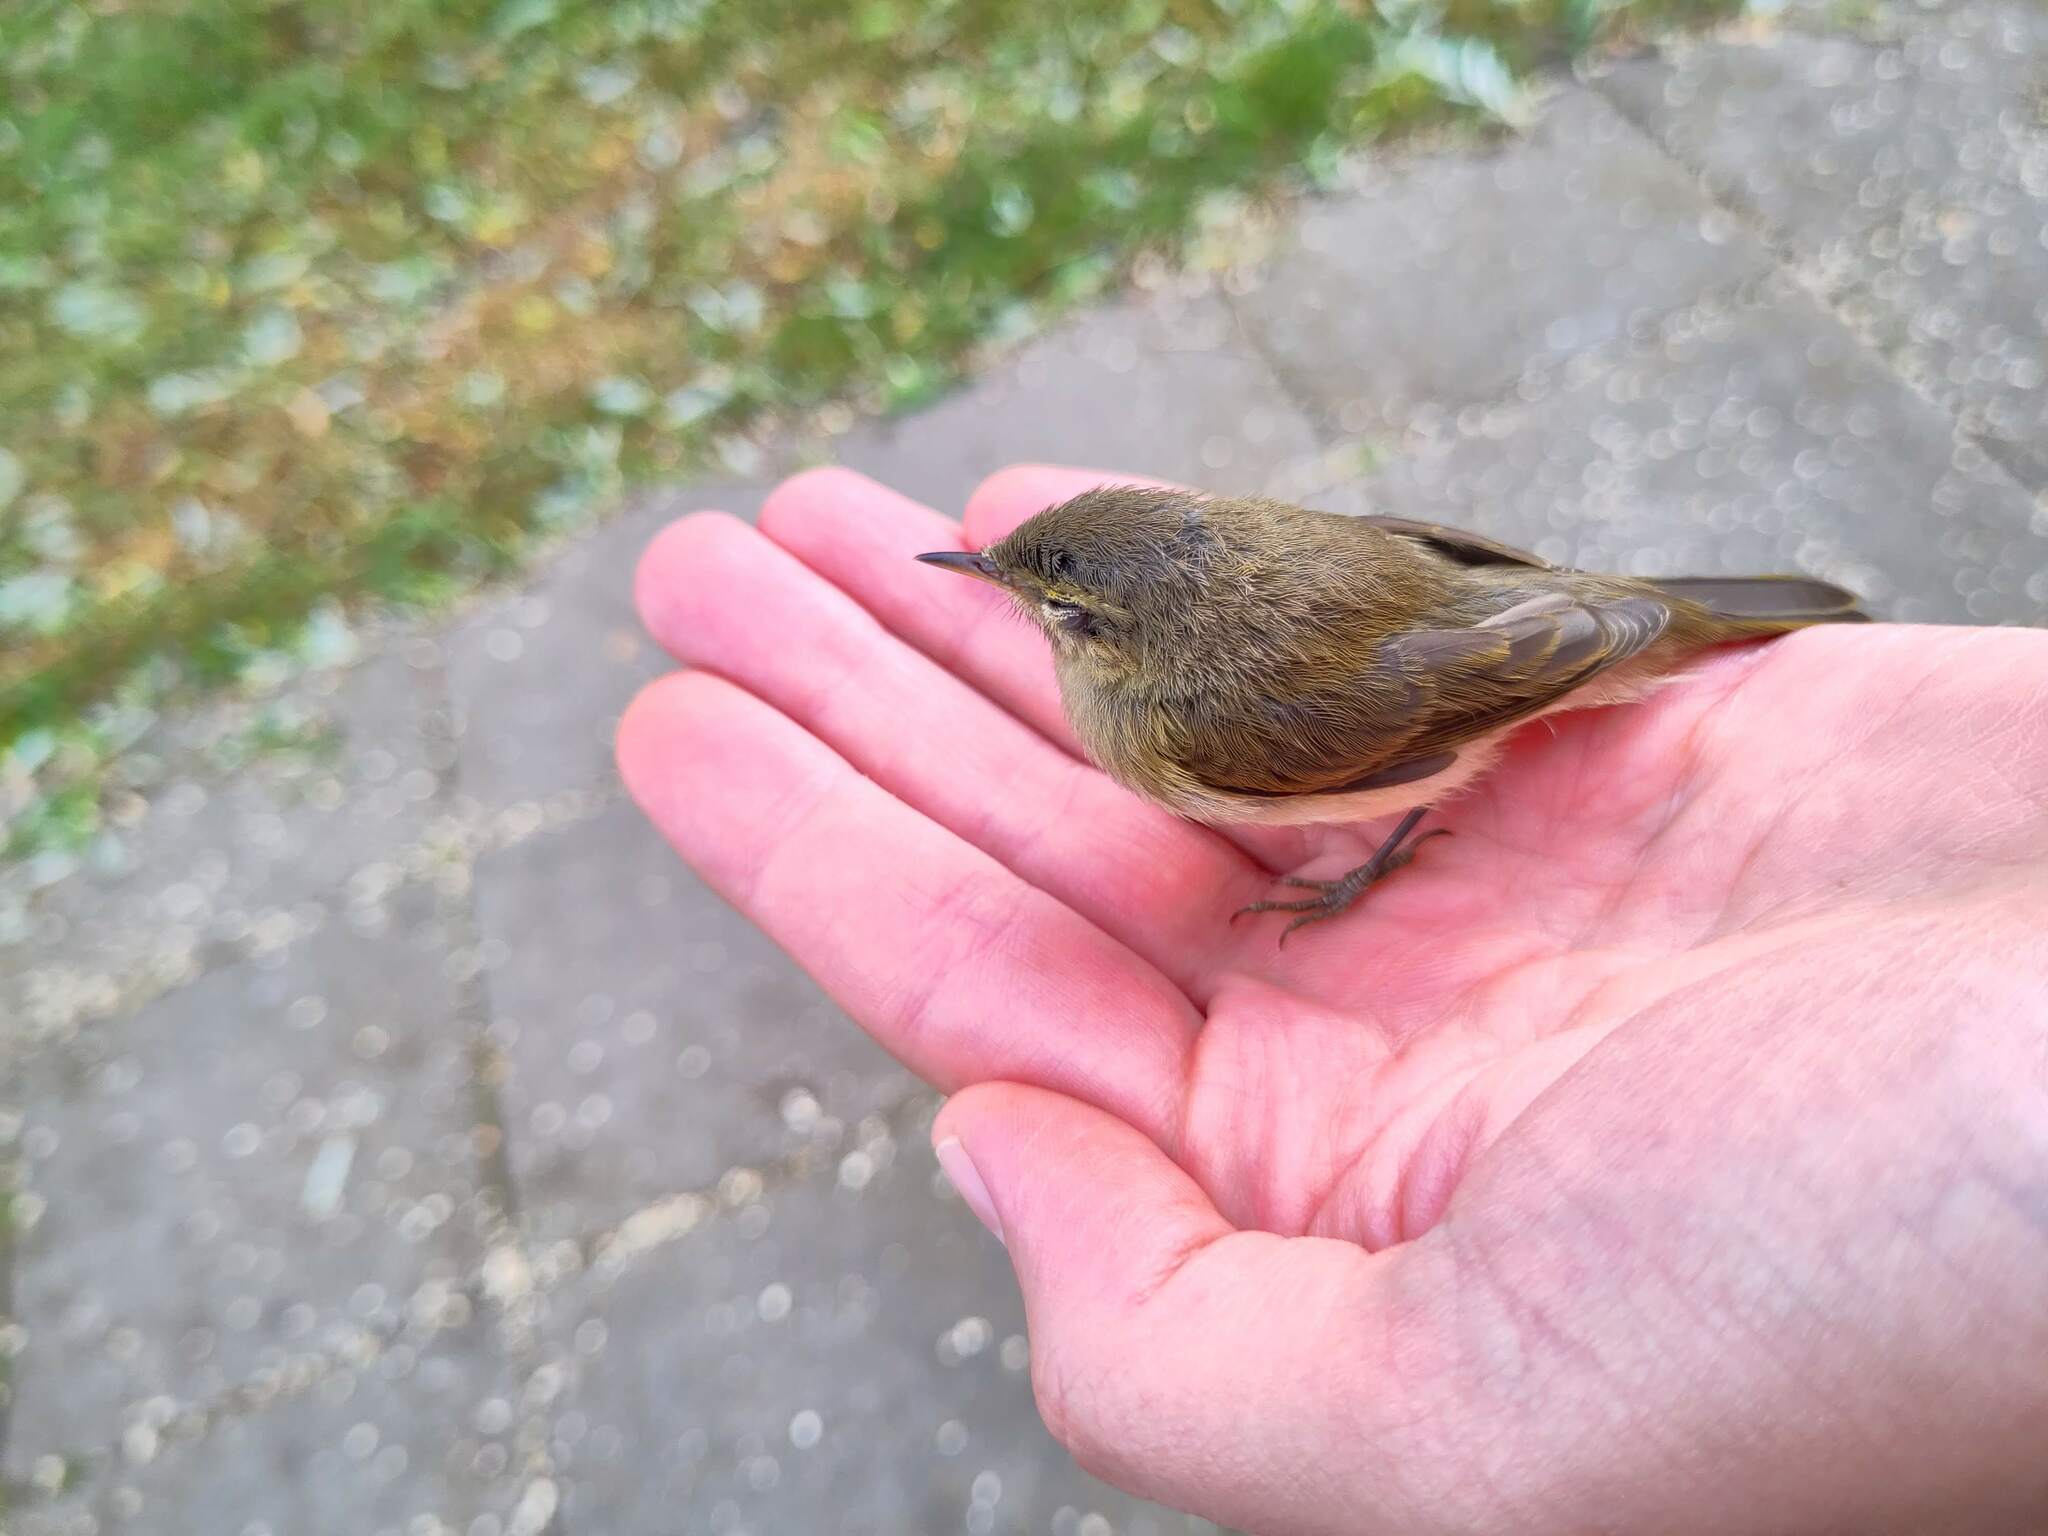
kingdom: Animalia
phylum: Chordata
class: Aves
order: Passeriformes
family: Phylloscopidae
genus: Phylloscopus
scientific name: Phylloscopus collybita
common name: Common chiffchaff
